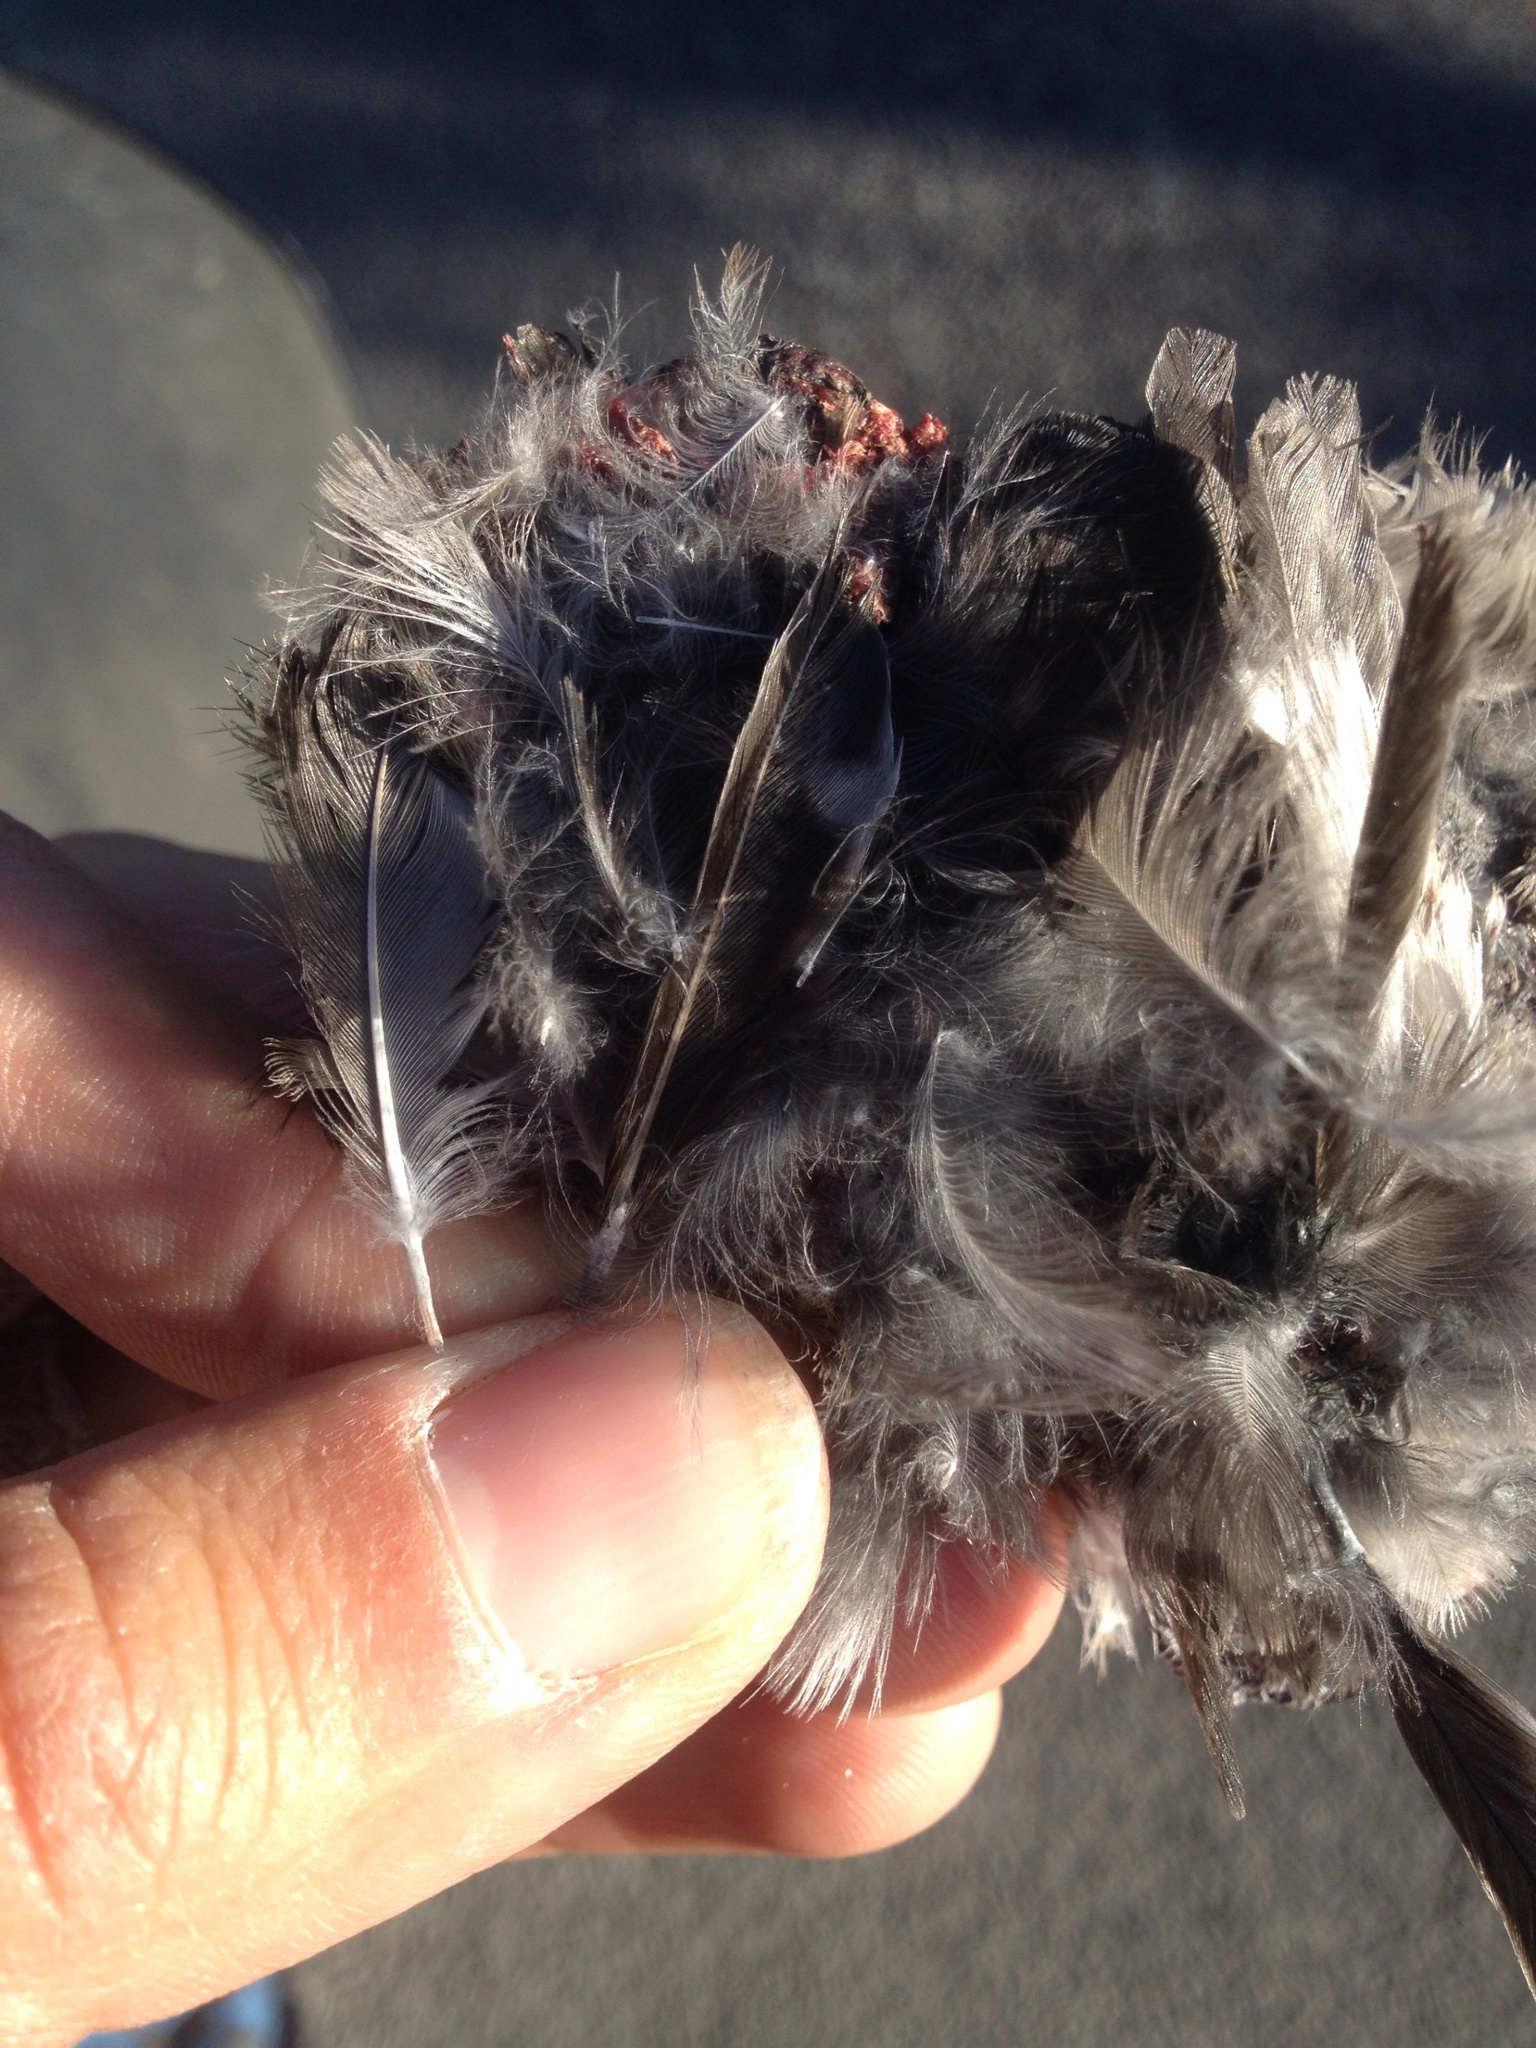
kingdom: Animalia
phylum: Chordata
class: Aves
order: Passeriformes
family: Acanthizidae
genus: Gerygone
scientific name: Gerygone igata
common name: Grey gerygone
